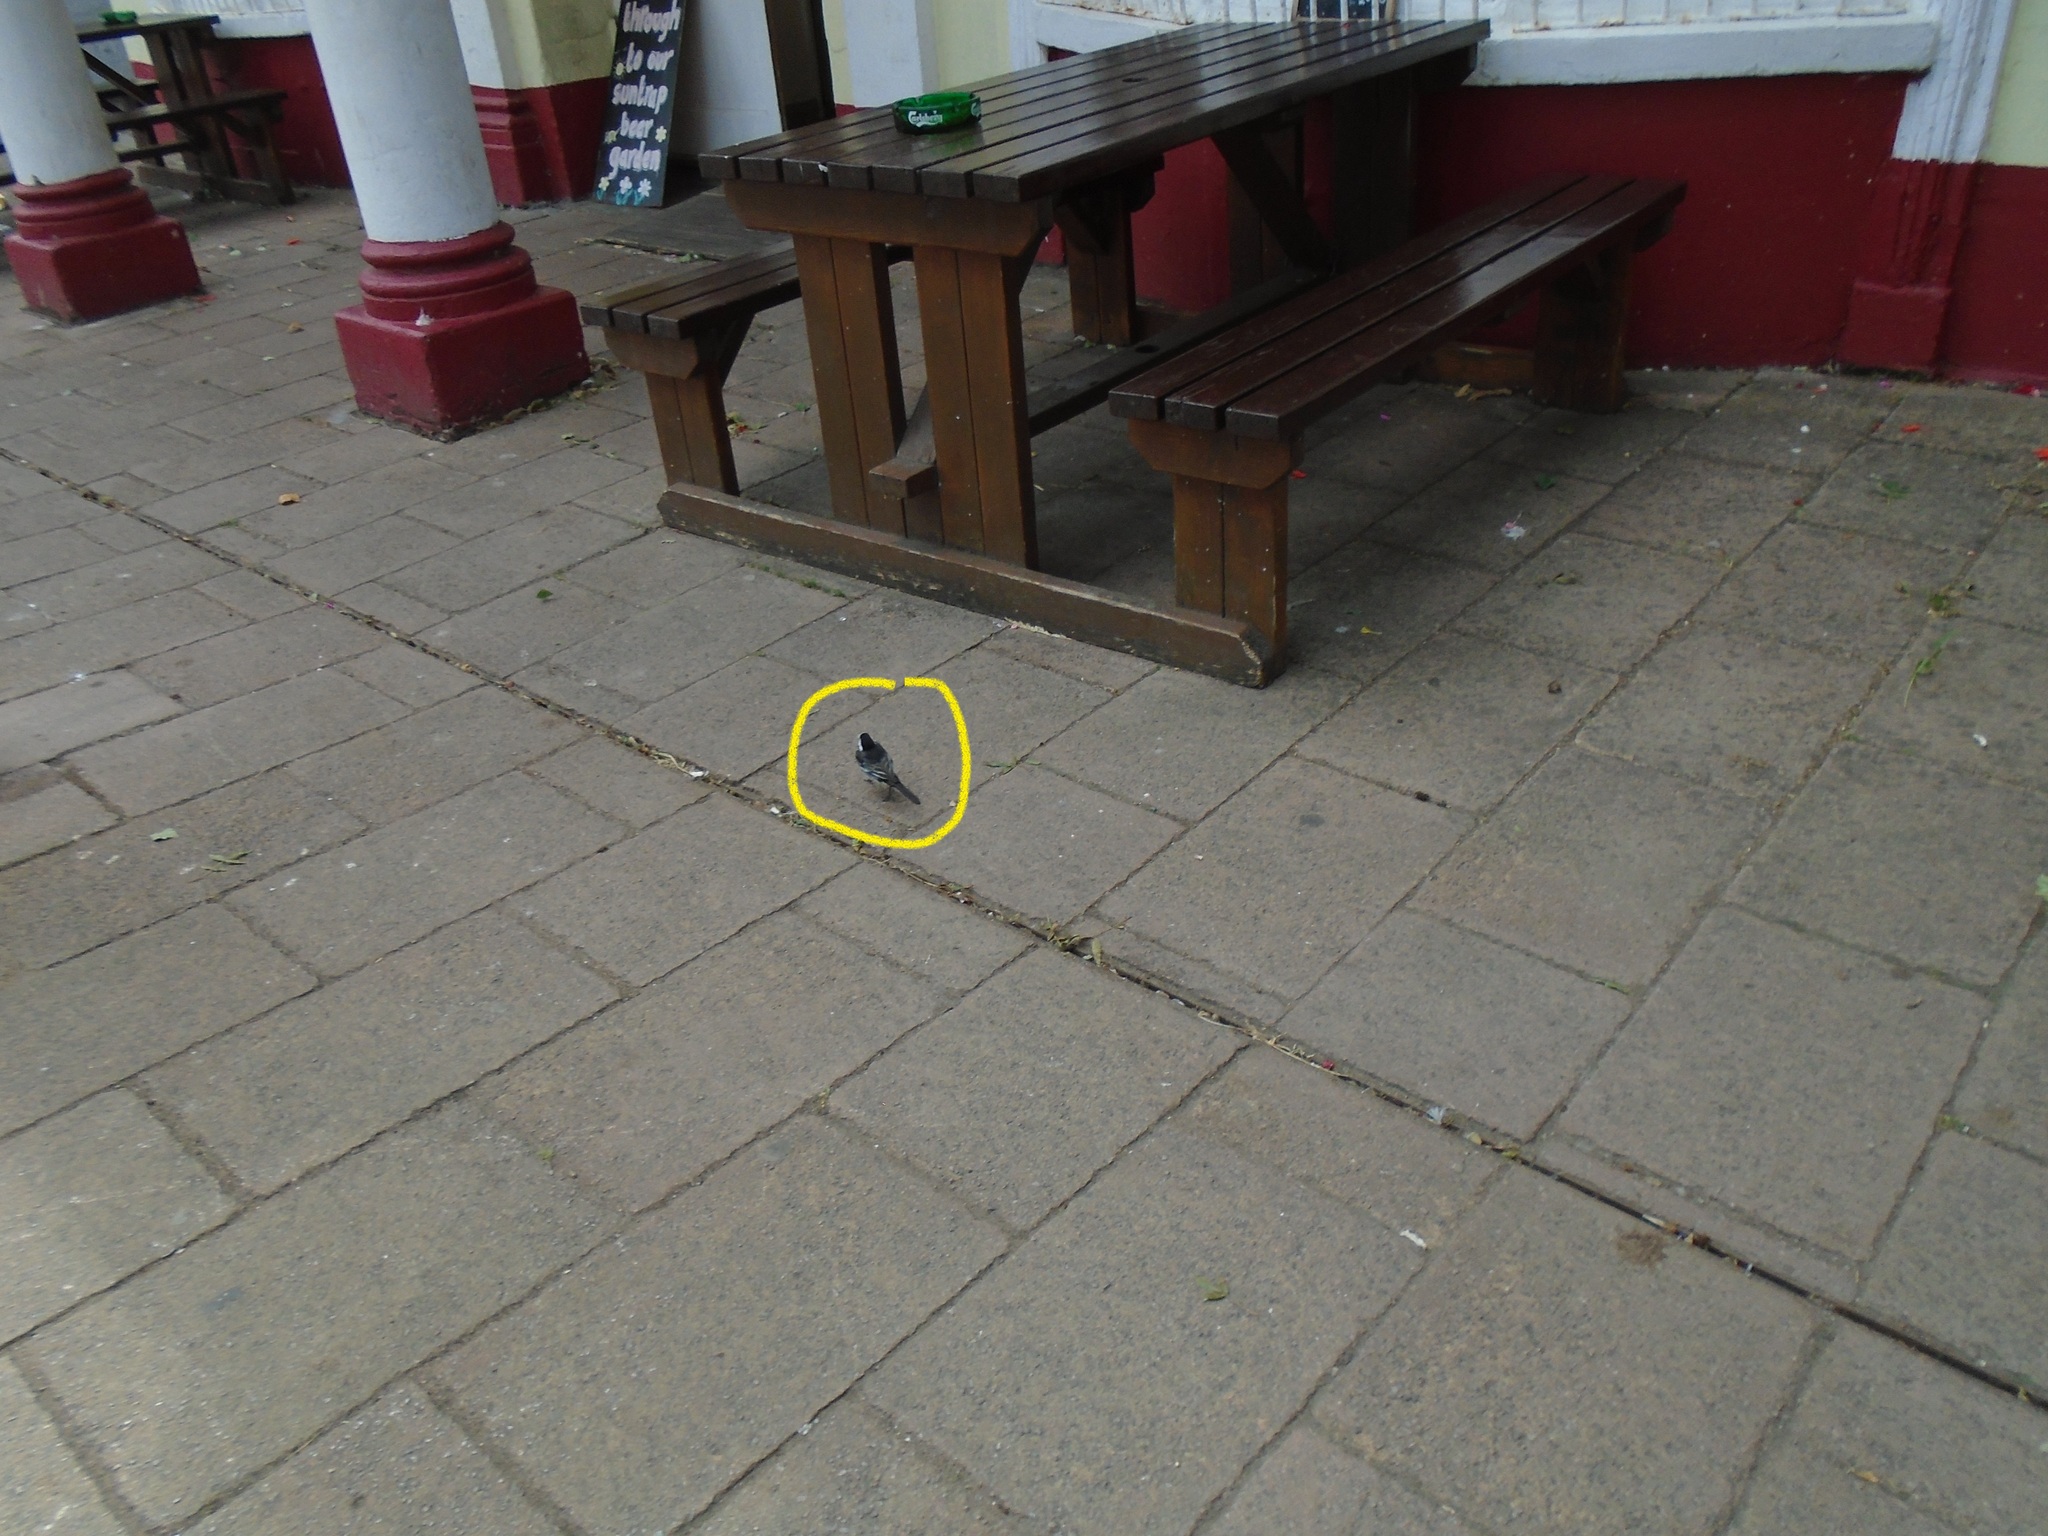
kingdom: Animalia
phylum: Chordata
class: Aves
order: Passeriformes
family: Motacillidae
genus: Motacilla
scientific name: Motacilla alba
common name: White wagtail
